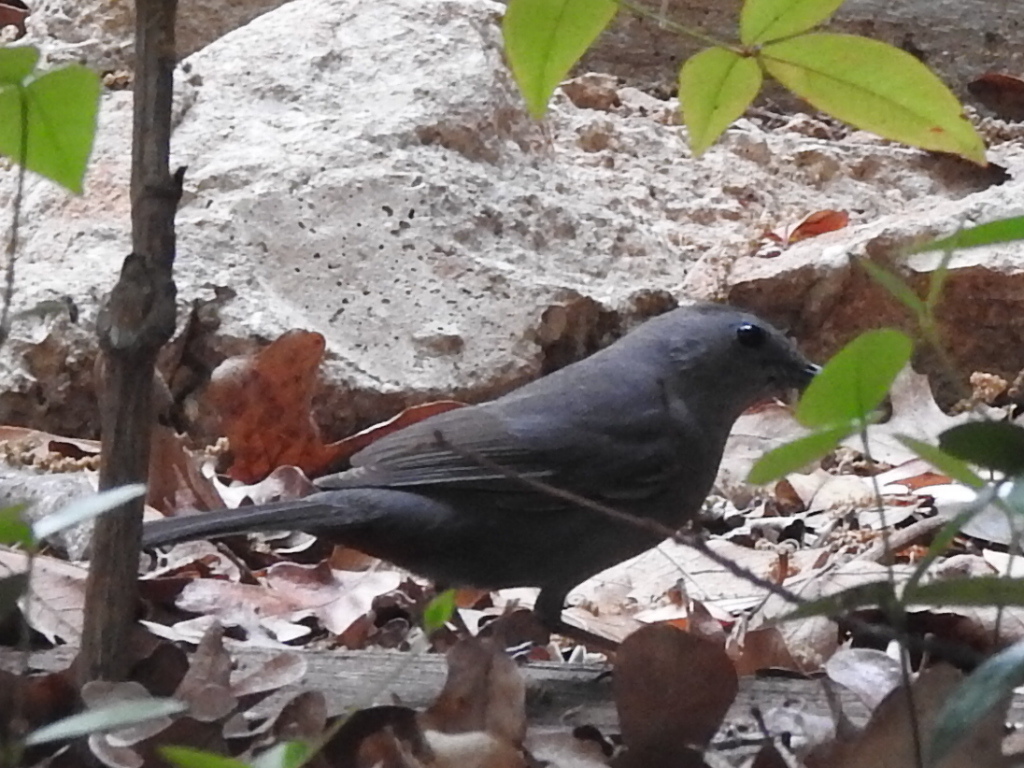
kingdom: Animalia
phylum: Chordata
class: Aves
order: Passeriformes
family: Mimidae
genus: Dumetella
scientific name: Dumetella carolinensis
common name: Gray catbird
